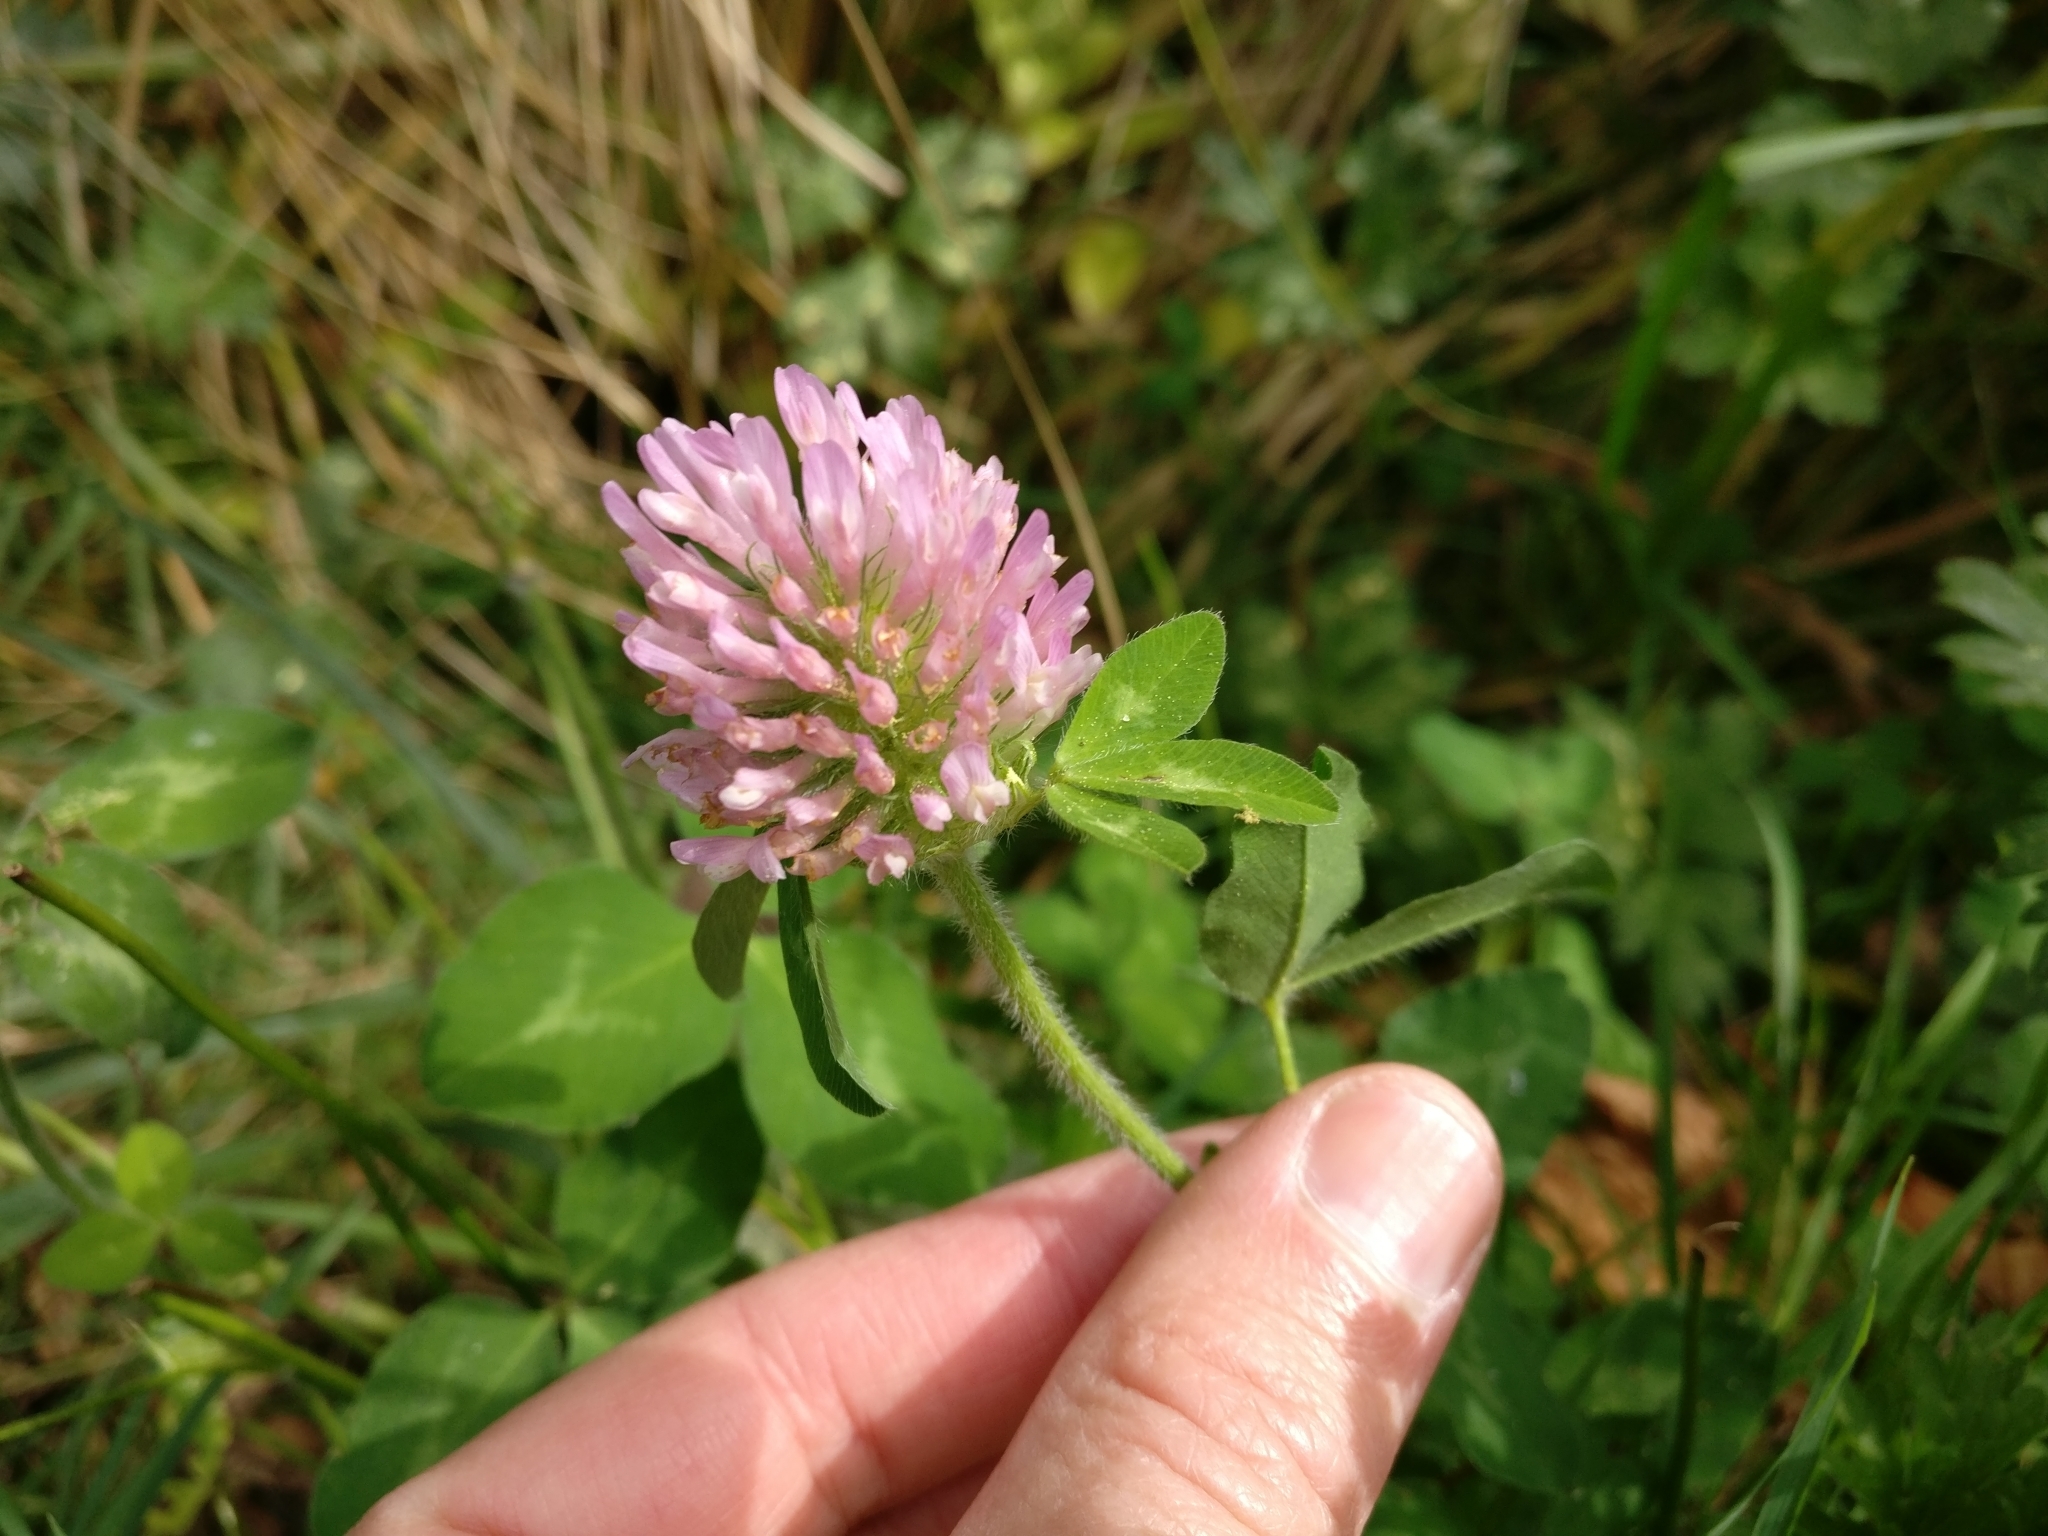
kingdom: Plantae
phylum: Tracheophyta
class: Magnoliopsida
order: Fabales
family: Fabaceae
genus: Trifolium
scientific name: Trifolium pratense
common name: Red clover
